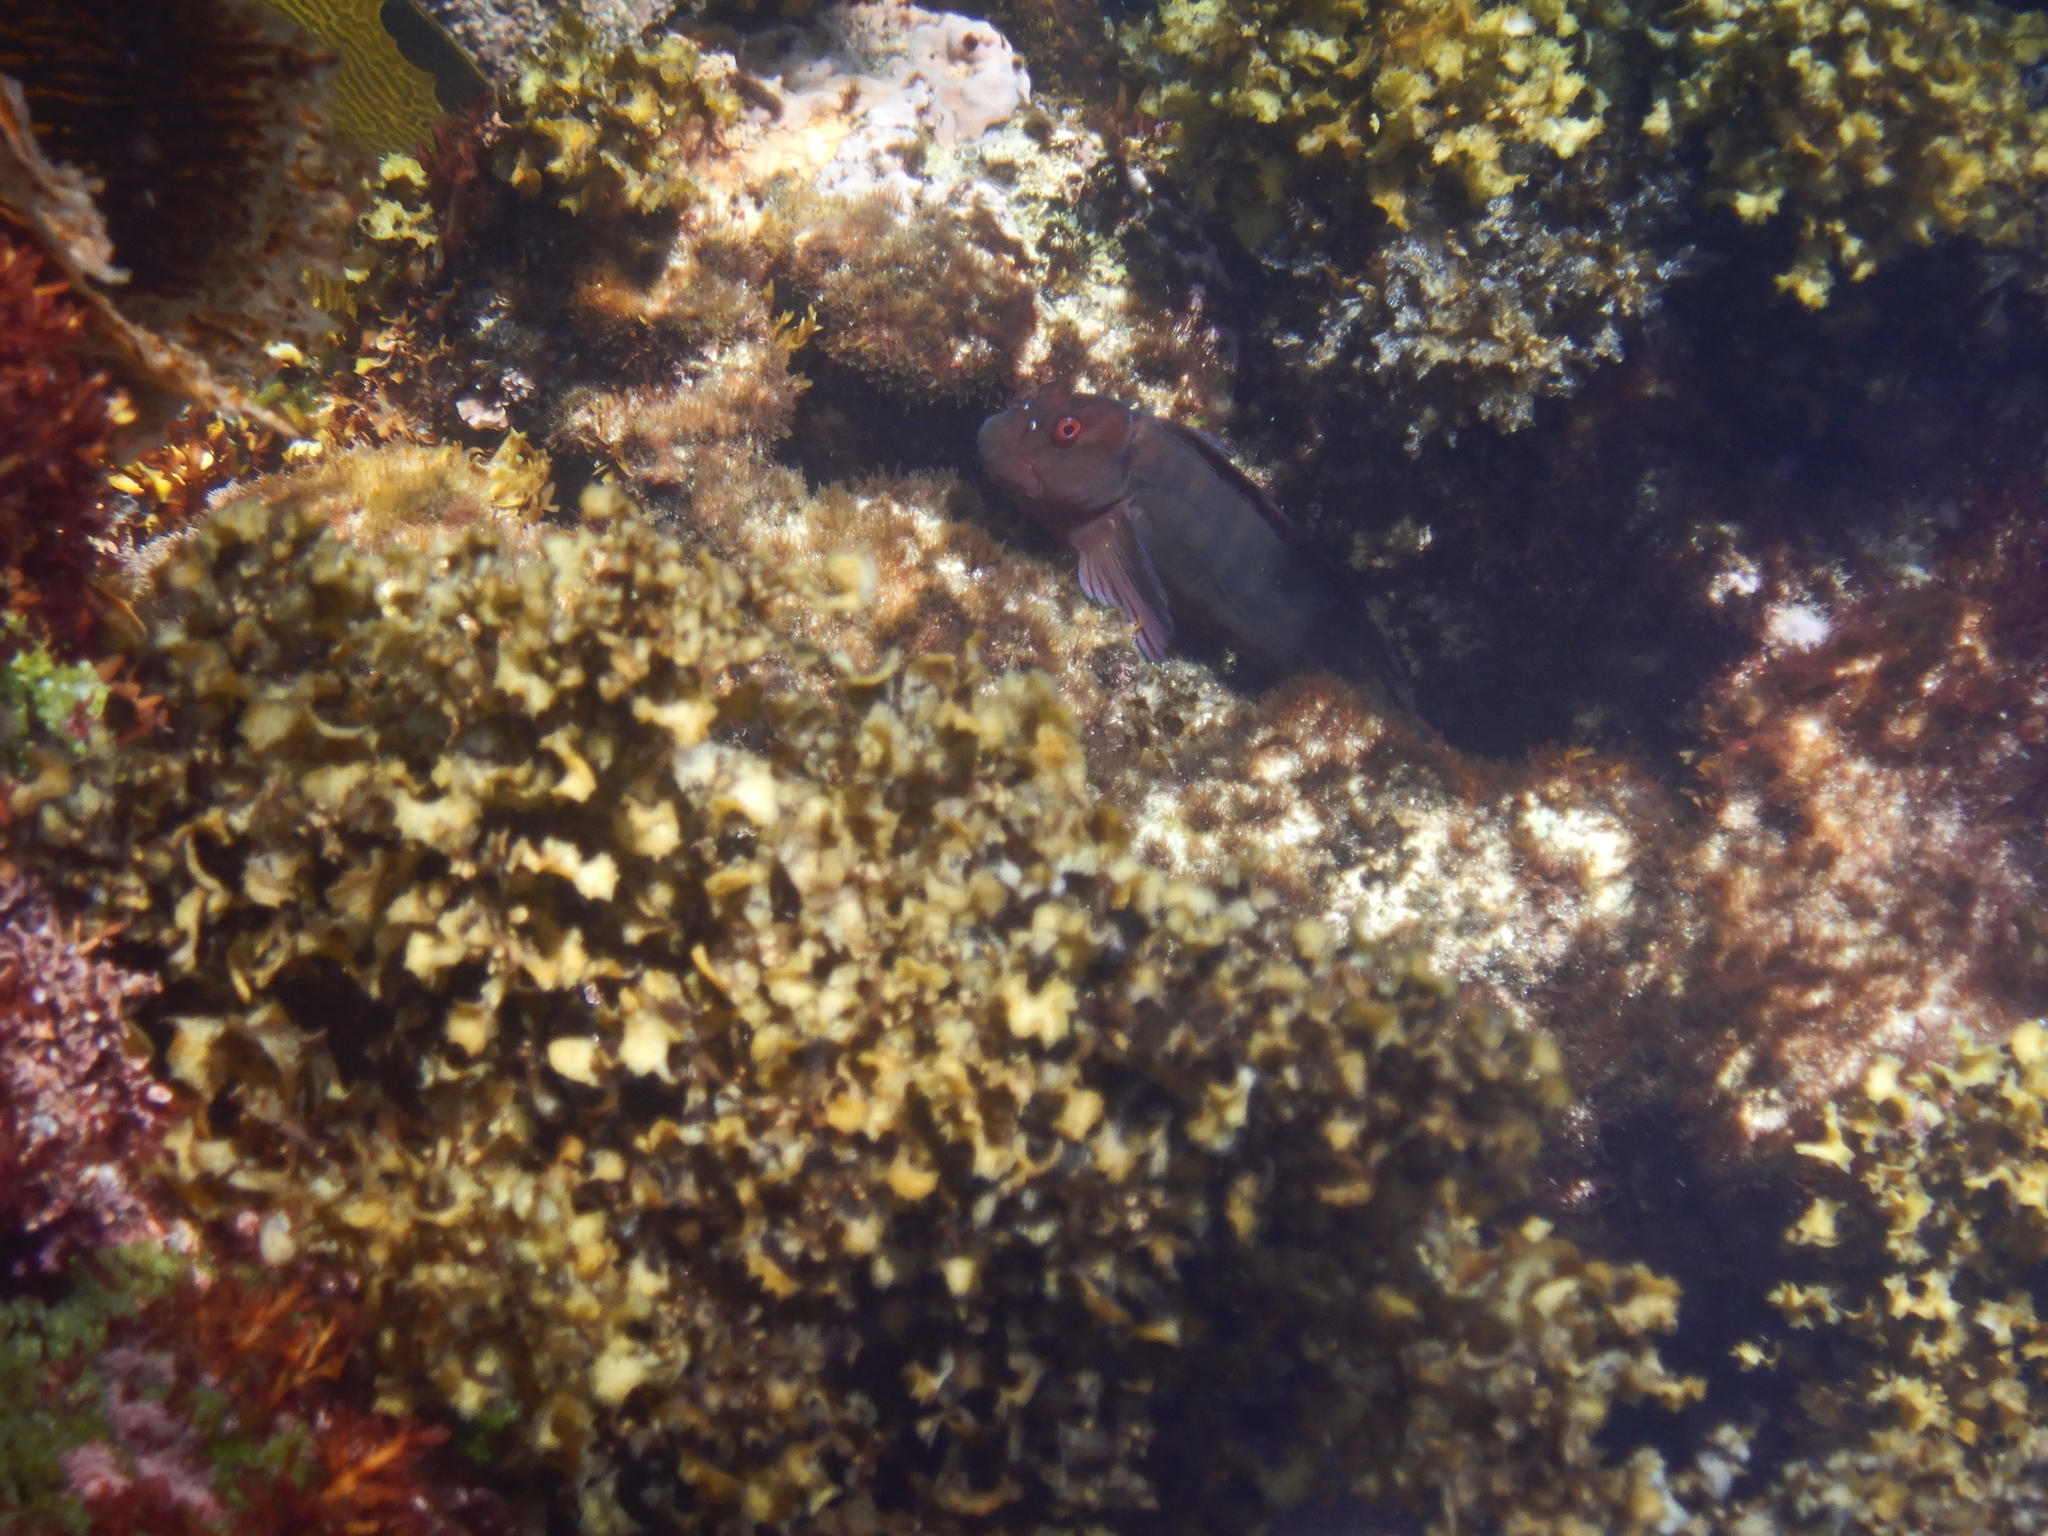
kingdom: Animalia
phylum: Chordata
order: Perciformes
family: Blenniidae
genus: Cirripectes
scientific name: Cirripectes hutchinsi
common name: Black blenny
